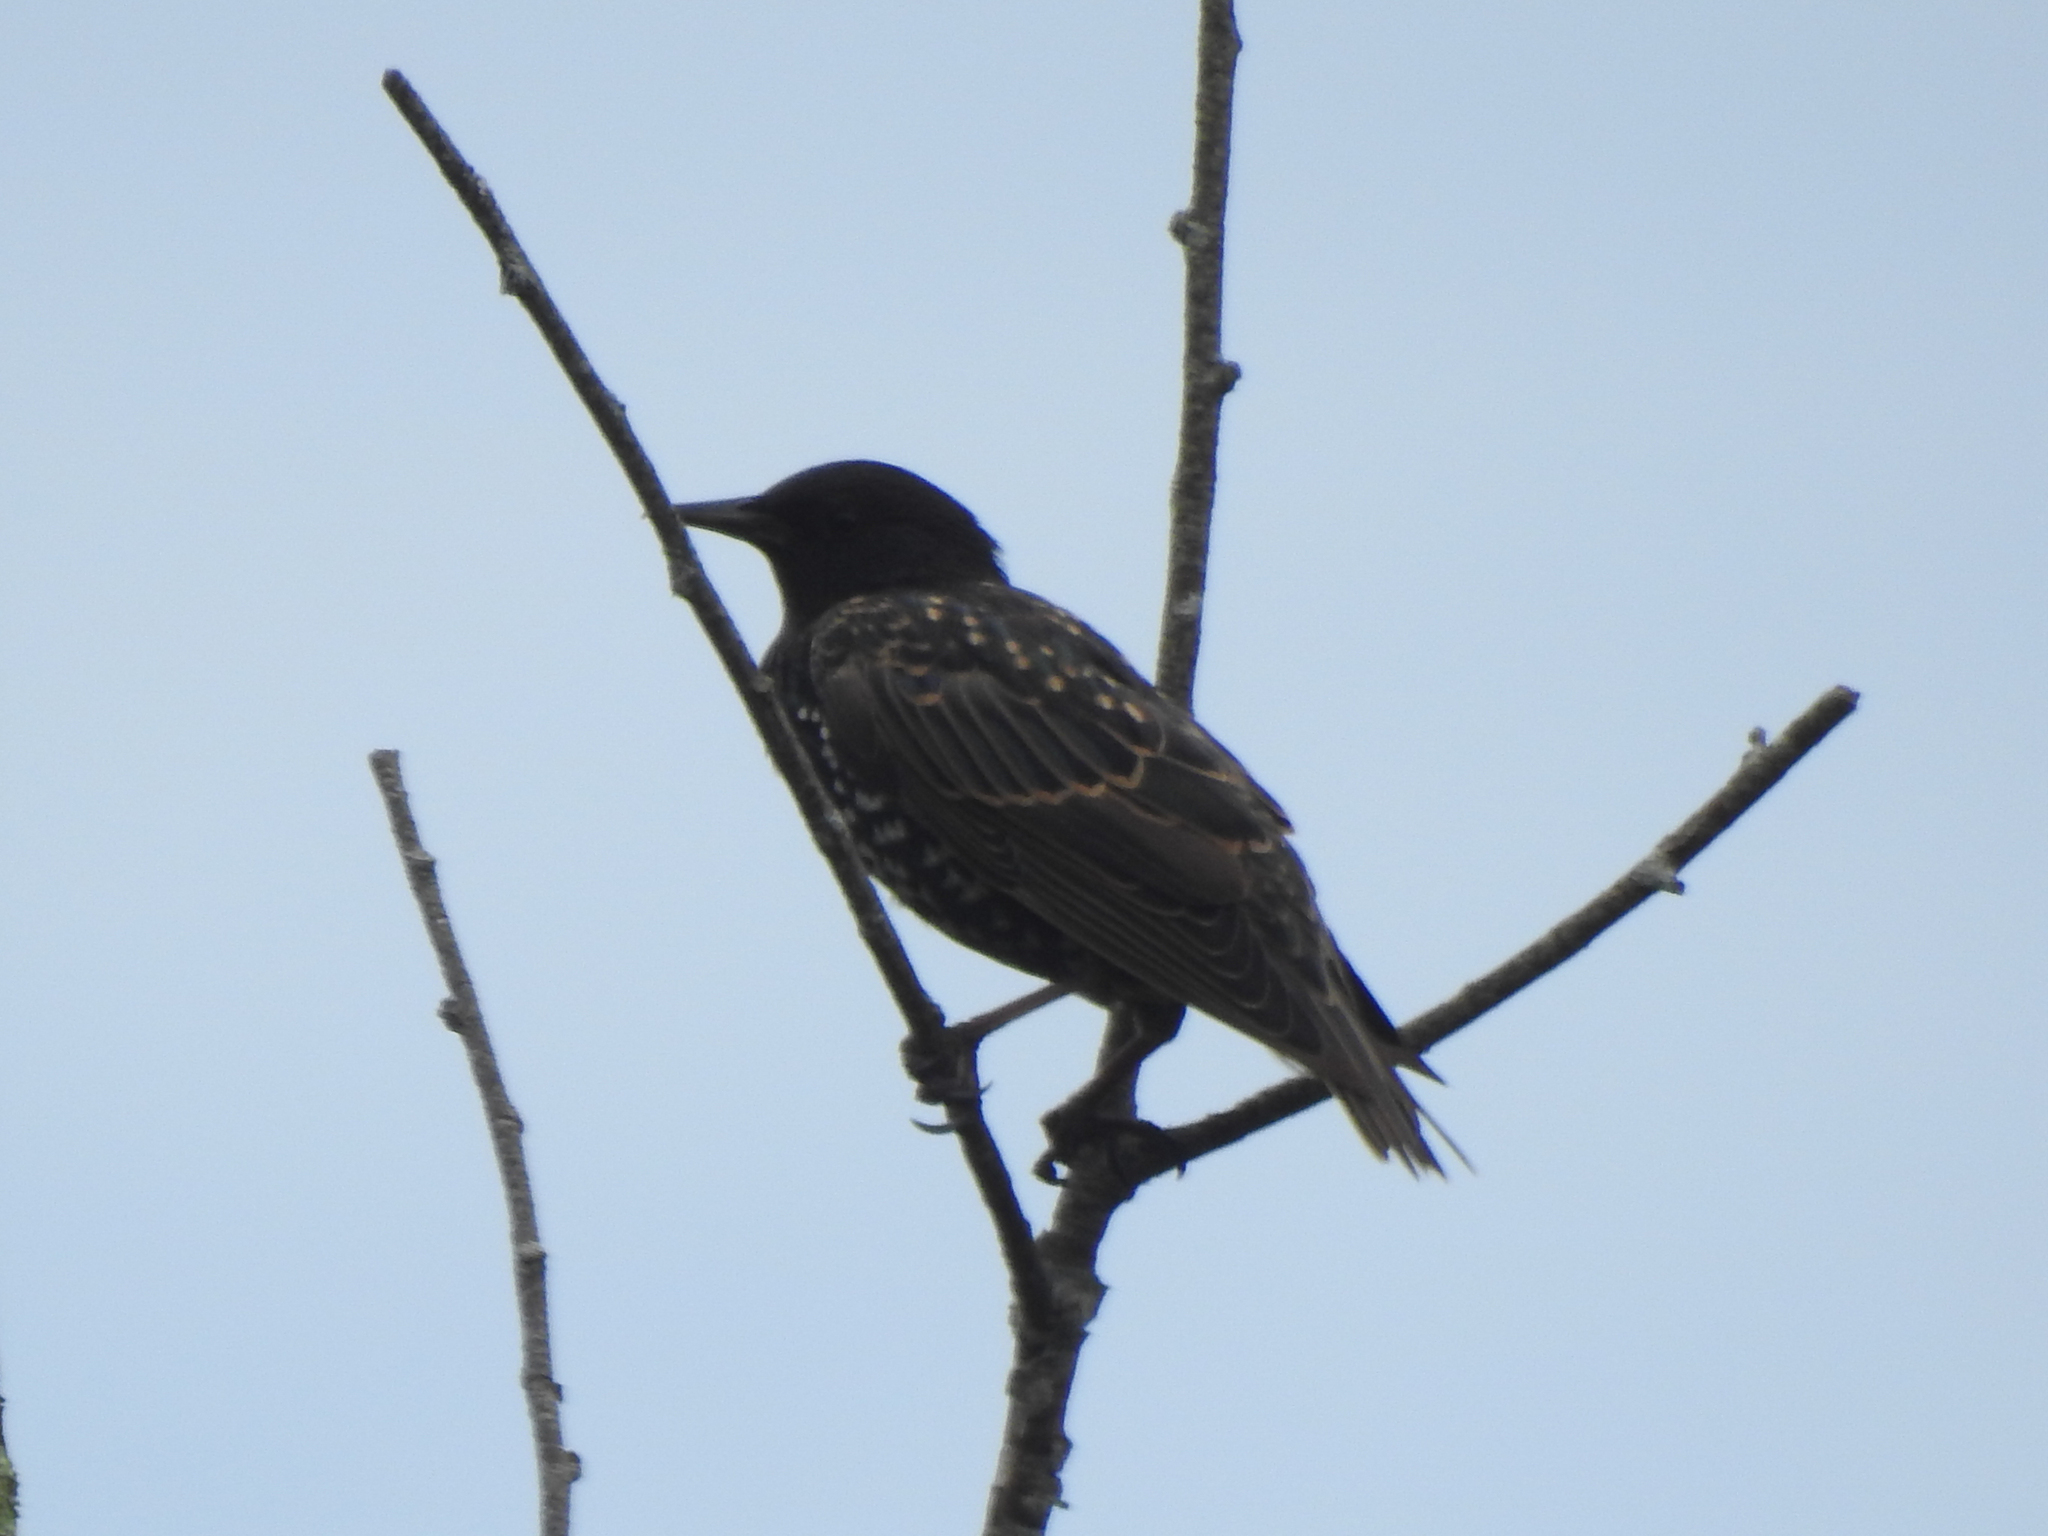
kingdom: Animalia
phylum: Chordata
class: Aves
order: Passeriformes
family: Sturnidae
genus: Sturnus
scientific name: Sturnus vulgaris
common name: Common starling
